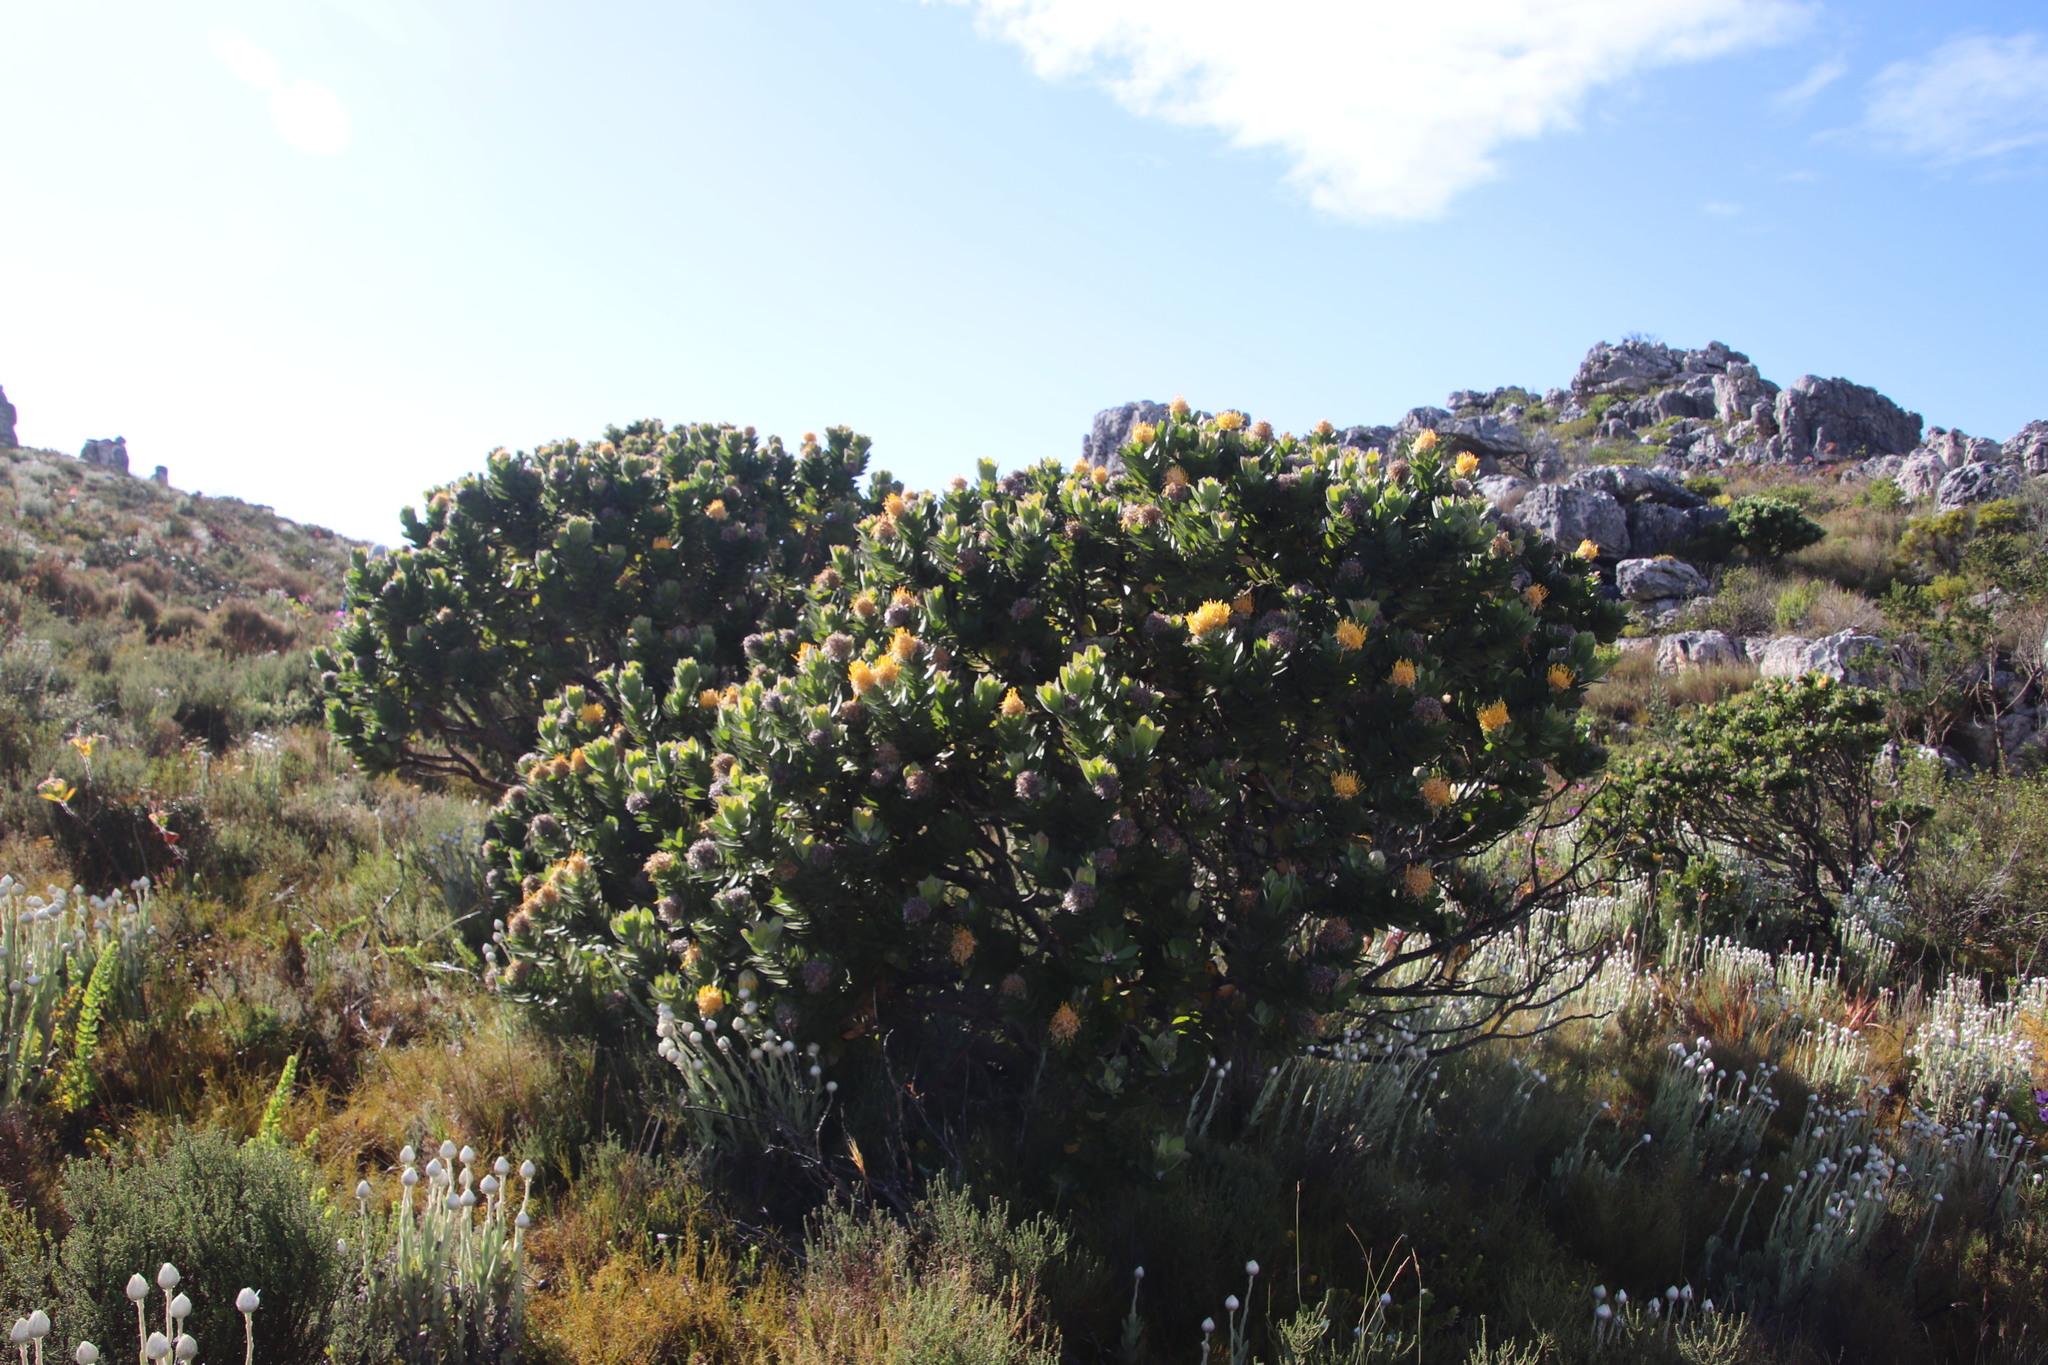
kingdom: Plantae
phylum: Tracheophyta
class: Magnoliopsida
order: Proteales
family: Proteaceae
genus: Leucospermum
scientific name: Leucospermum conocarpodendron
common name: Tree pincushion
